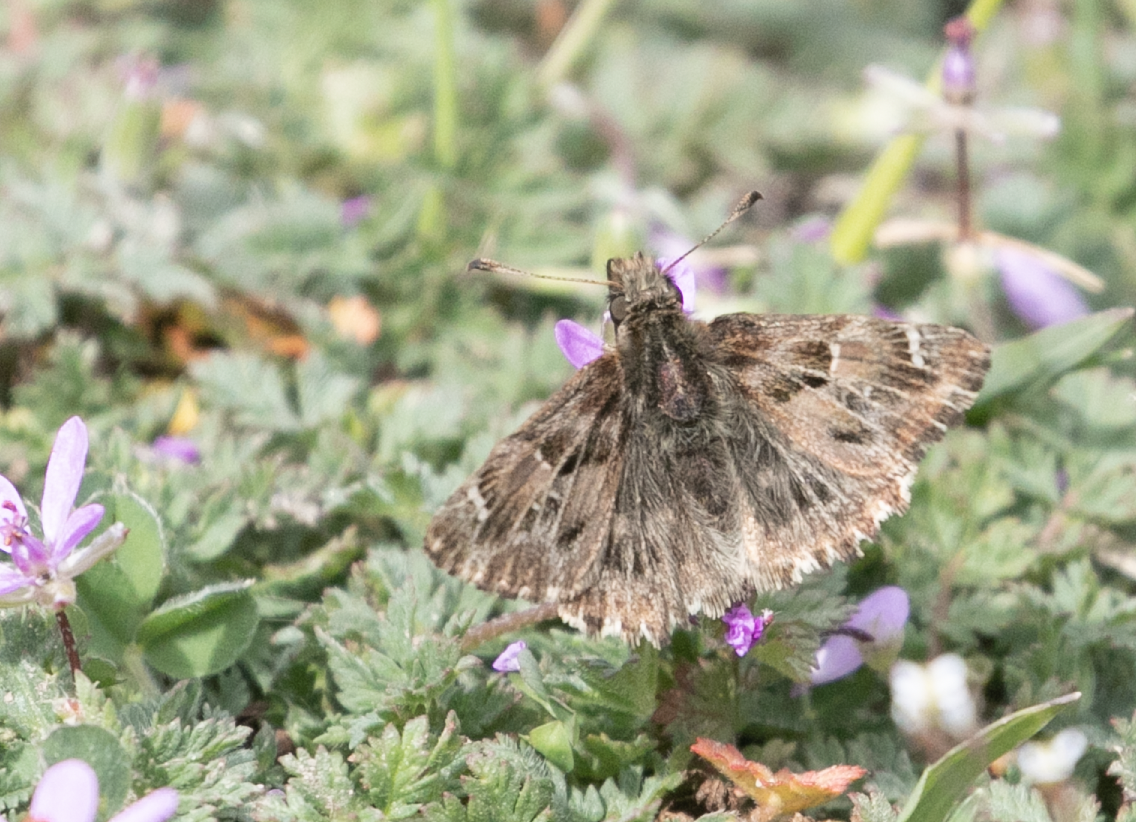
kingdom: Animalia
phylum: Arthropoda
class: Insecta
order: Lepidoptera
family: Hesperiidae
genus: Carcharodus
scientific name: Carcharodus alceae
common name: Mallow skipper
